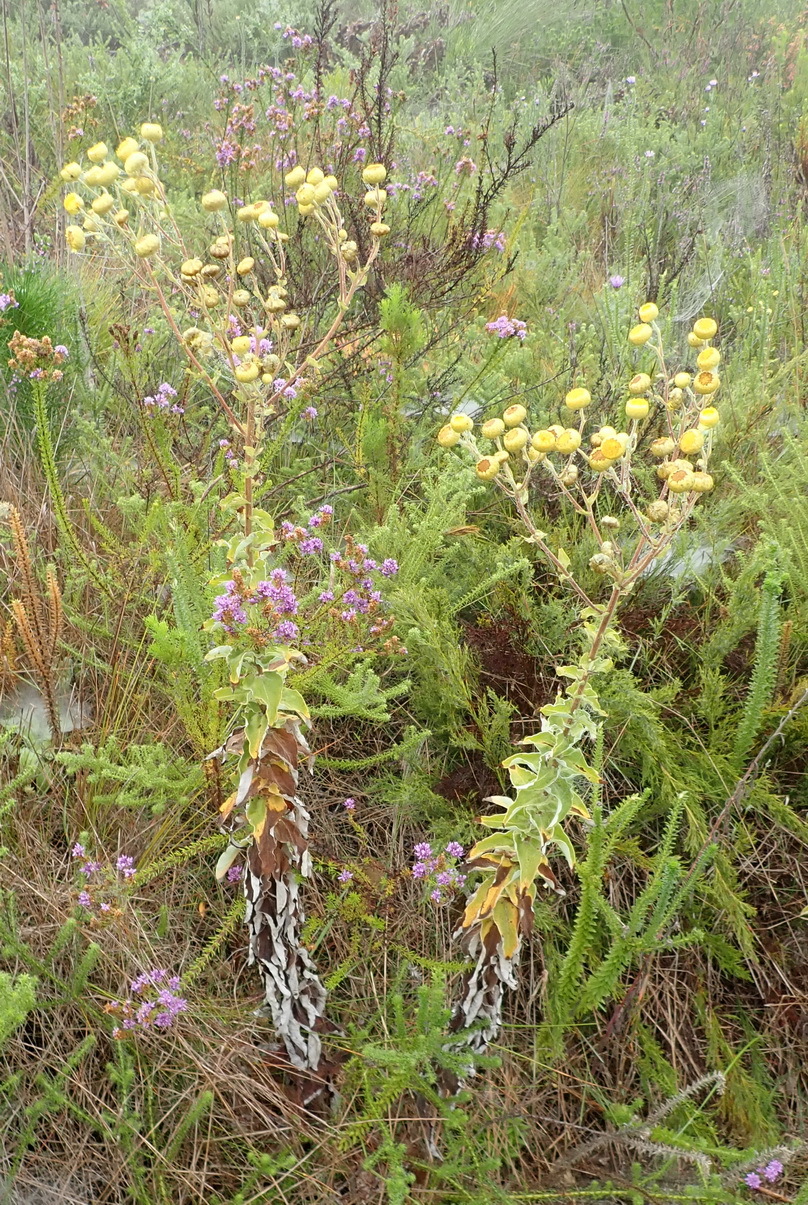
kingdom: Plantae
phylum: Tracheophyta
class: Magnoliopsida
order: Asterales
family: Asteraceae
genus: Helichrysum
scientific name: Helichrysum foetidum
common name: Stinking everlasting
